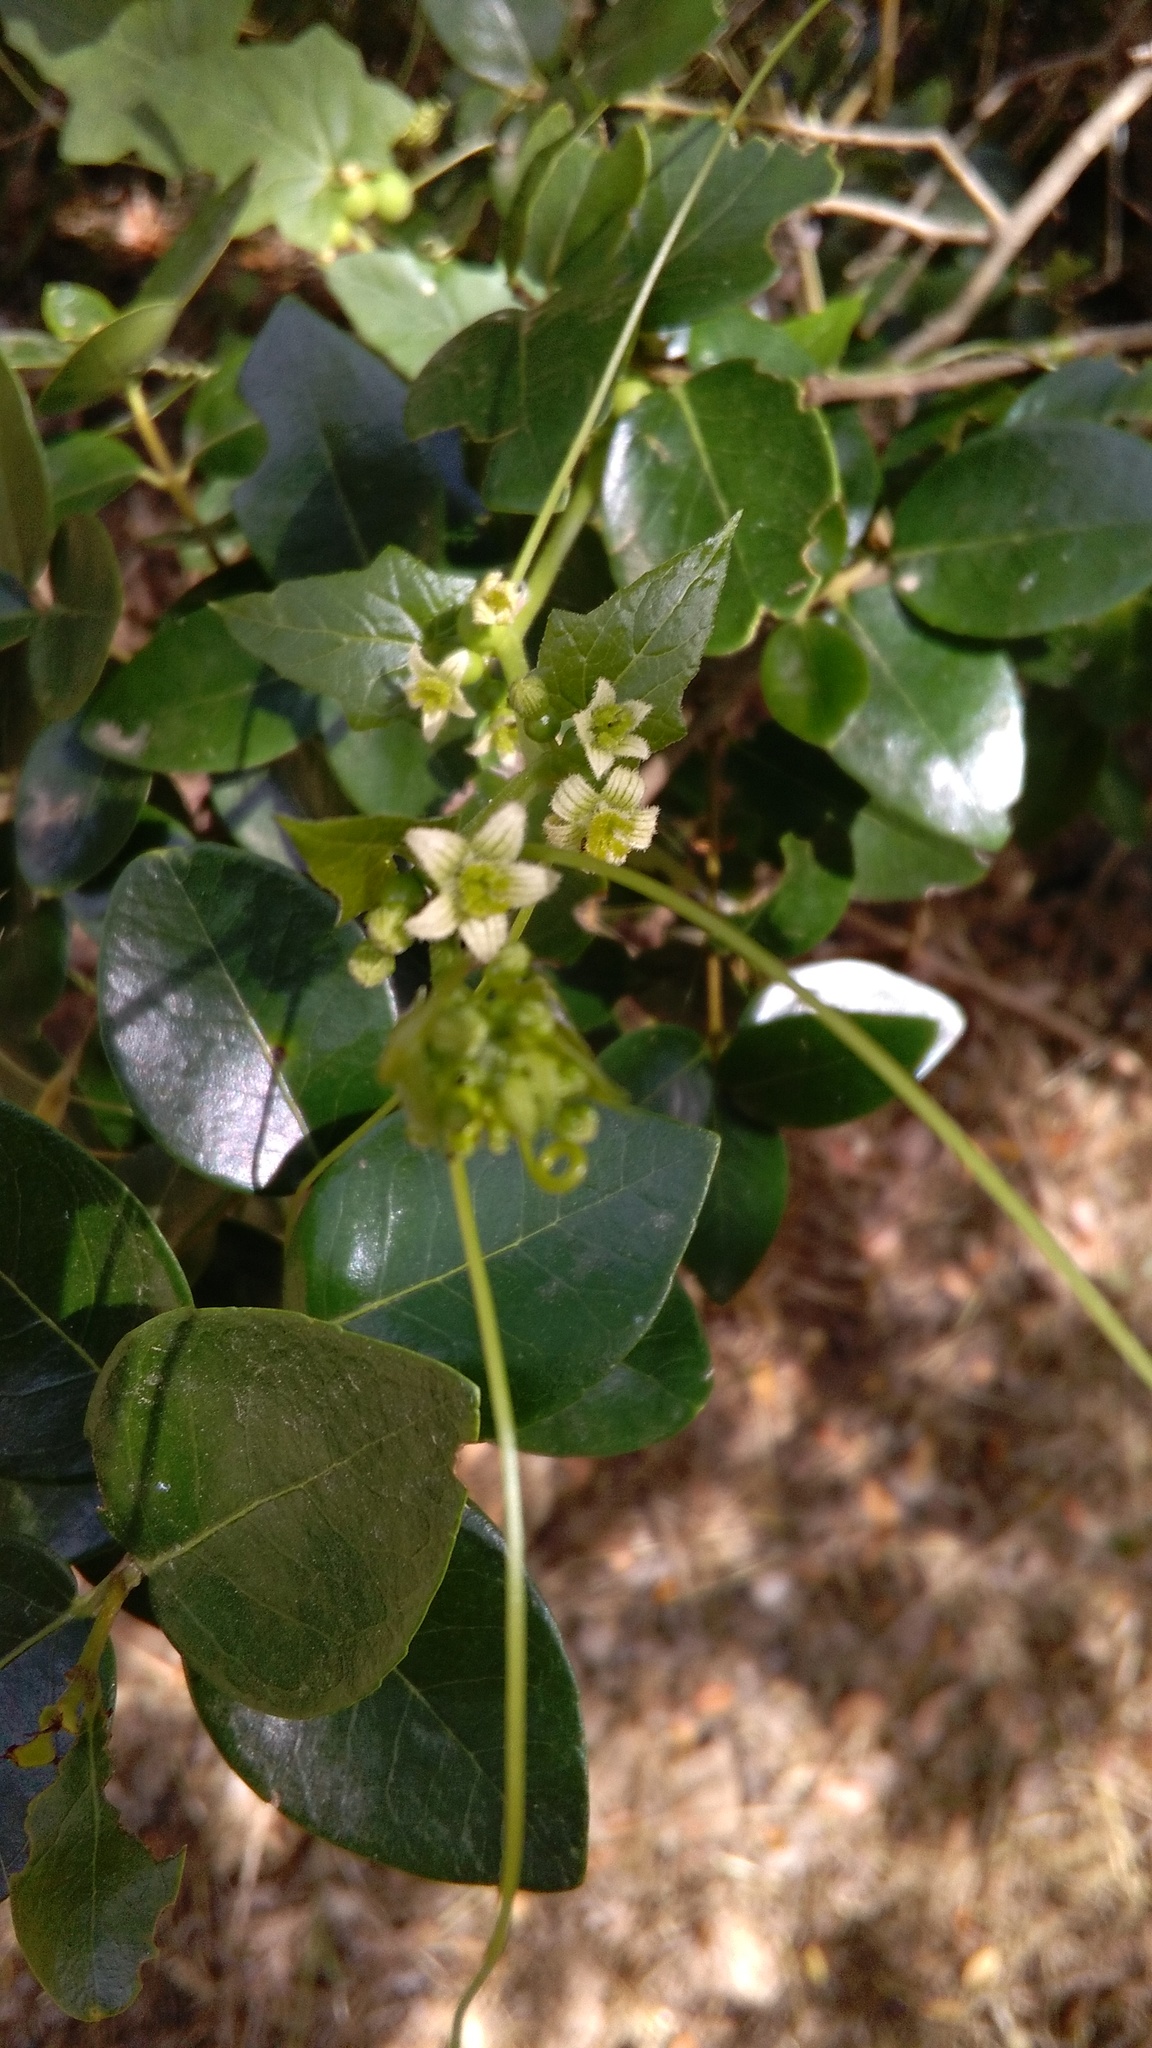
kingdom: Plantae
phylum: Tracheophyta
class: Magnoliopsida
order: Cucurbitales
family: Cucurbitaceae
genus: Bryonia
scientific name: Bryonia cretica
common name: Cretan bryony
